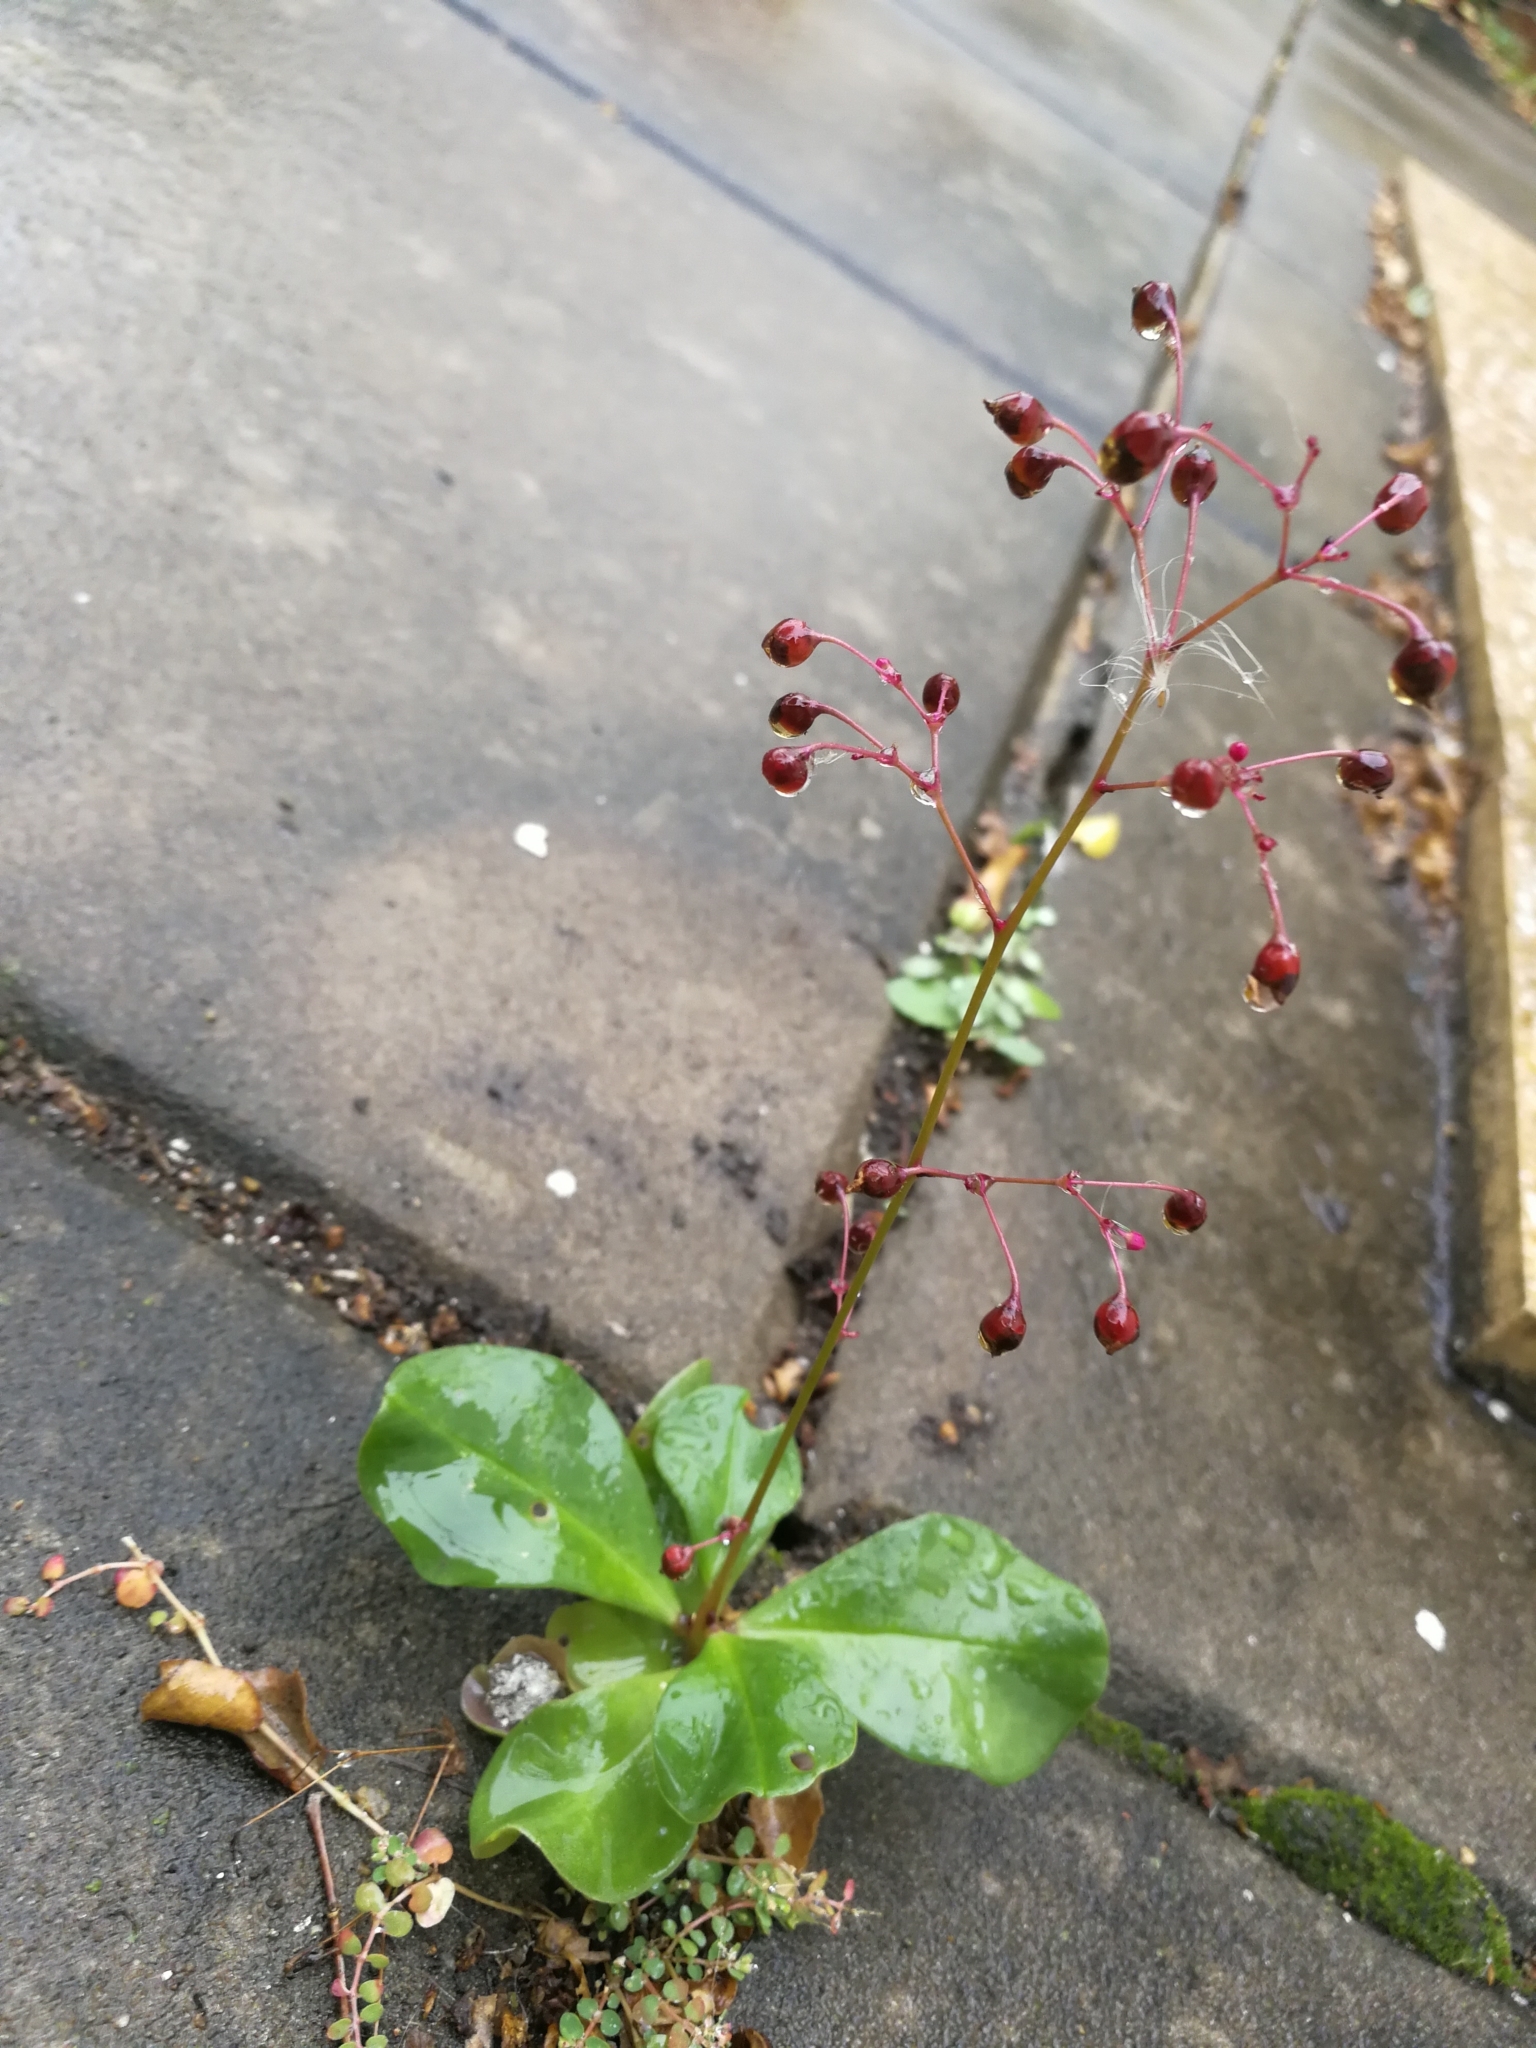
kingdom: Plantae
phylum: Tracheophyta
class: Magnoliopsida
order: Caryophyllales
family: Talinaceae
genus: Talinum
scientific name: Talinum paniculatum
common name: Jewels of opar
